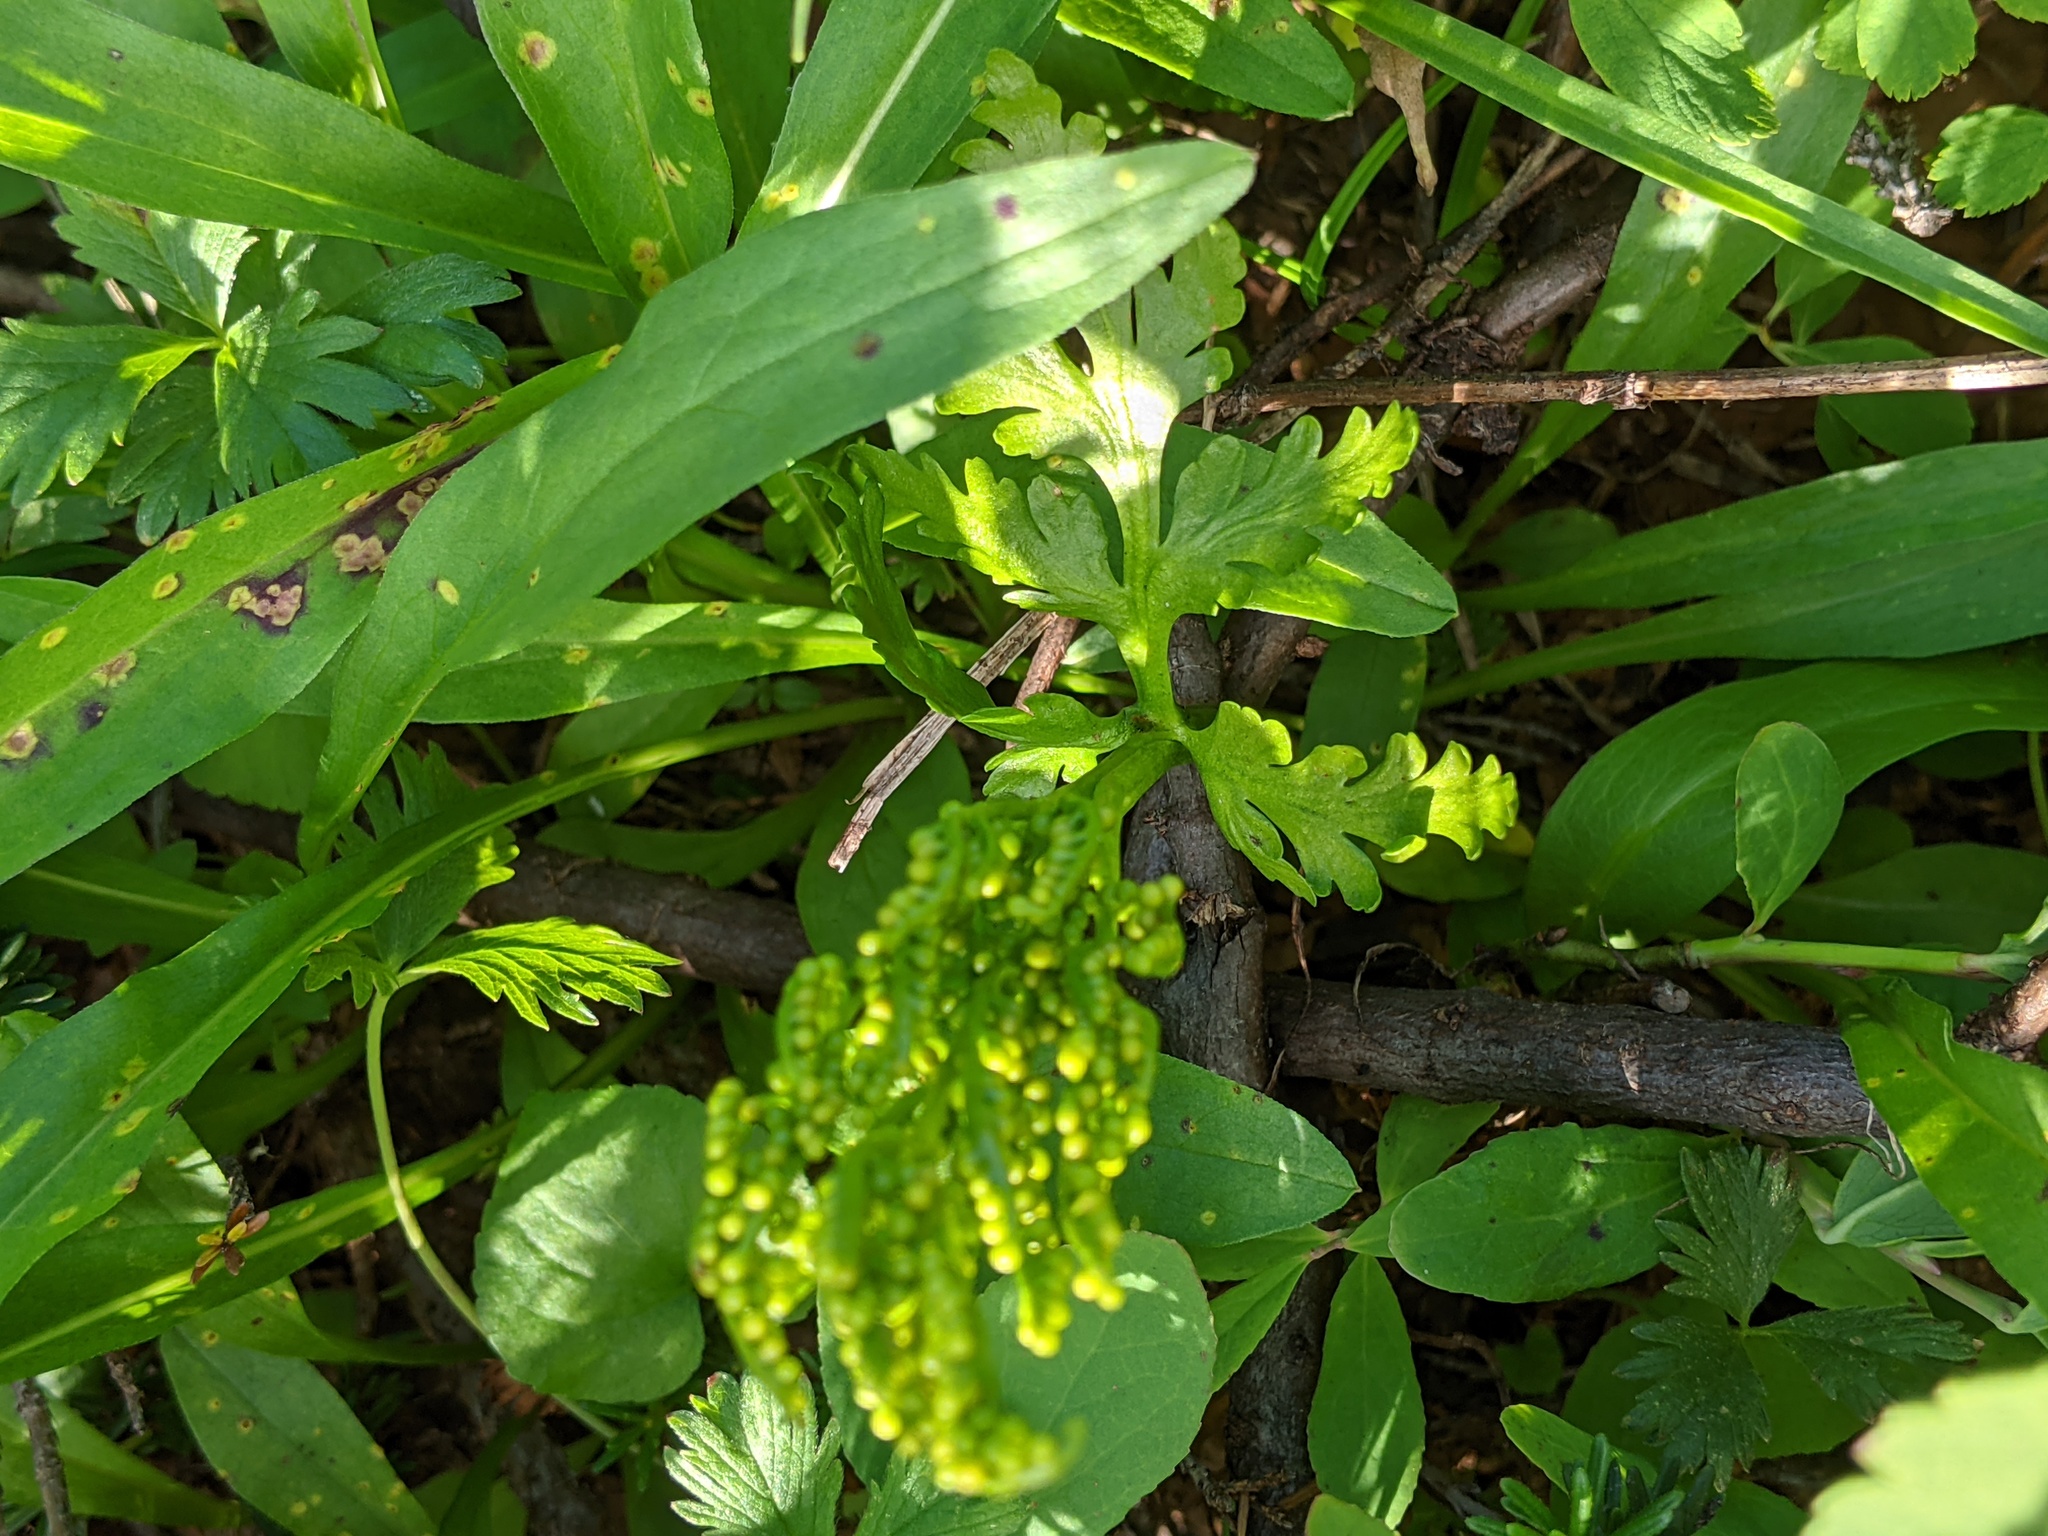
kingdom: Plantae
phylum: Tracheophyta
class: Polypodiopsida
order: Ophioglossales
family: Ophioglossaceae
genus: Botrychium
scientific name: Botrychium lanceolatum
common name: Lance-leaved moonwort
